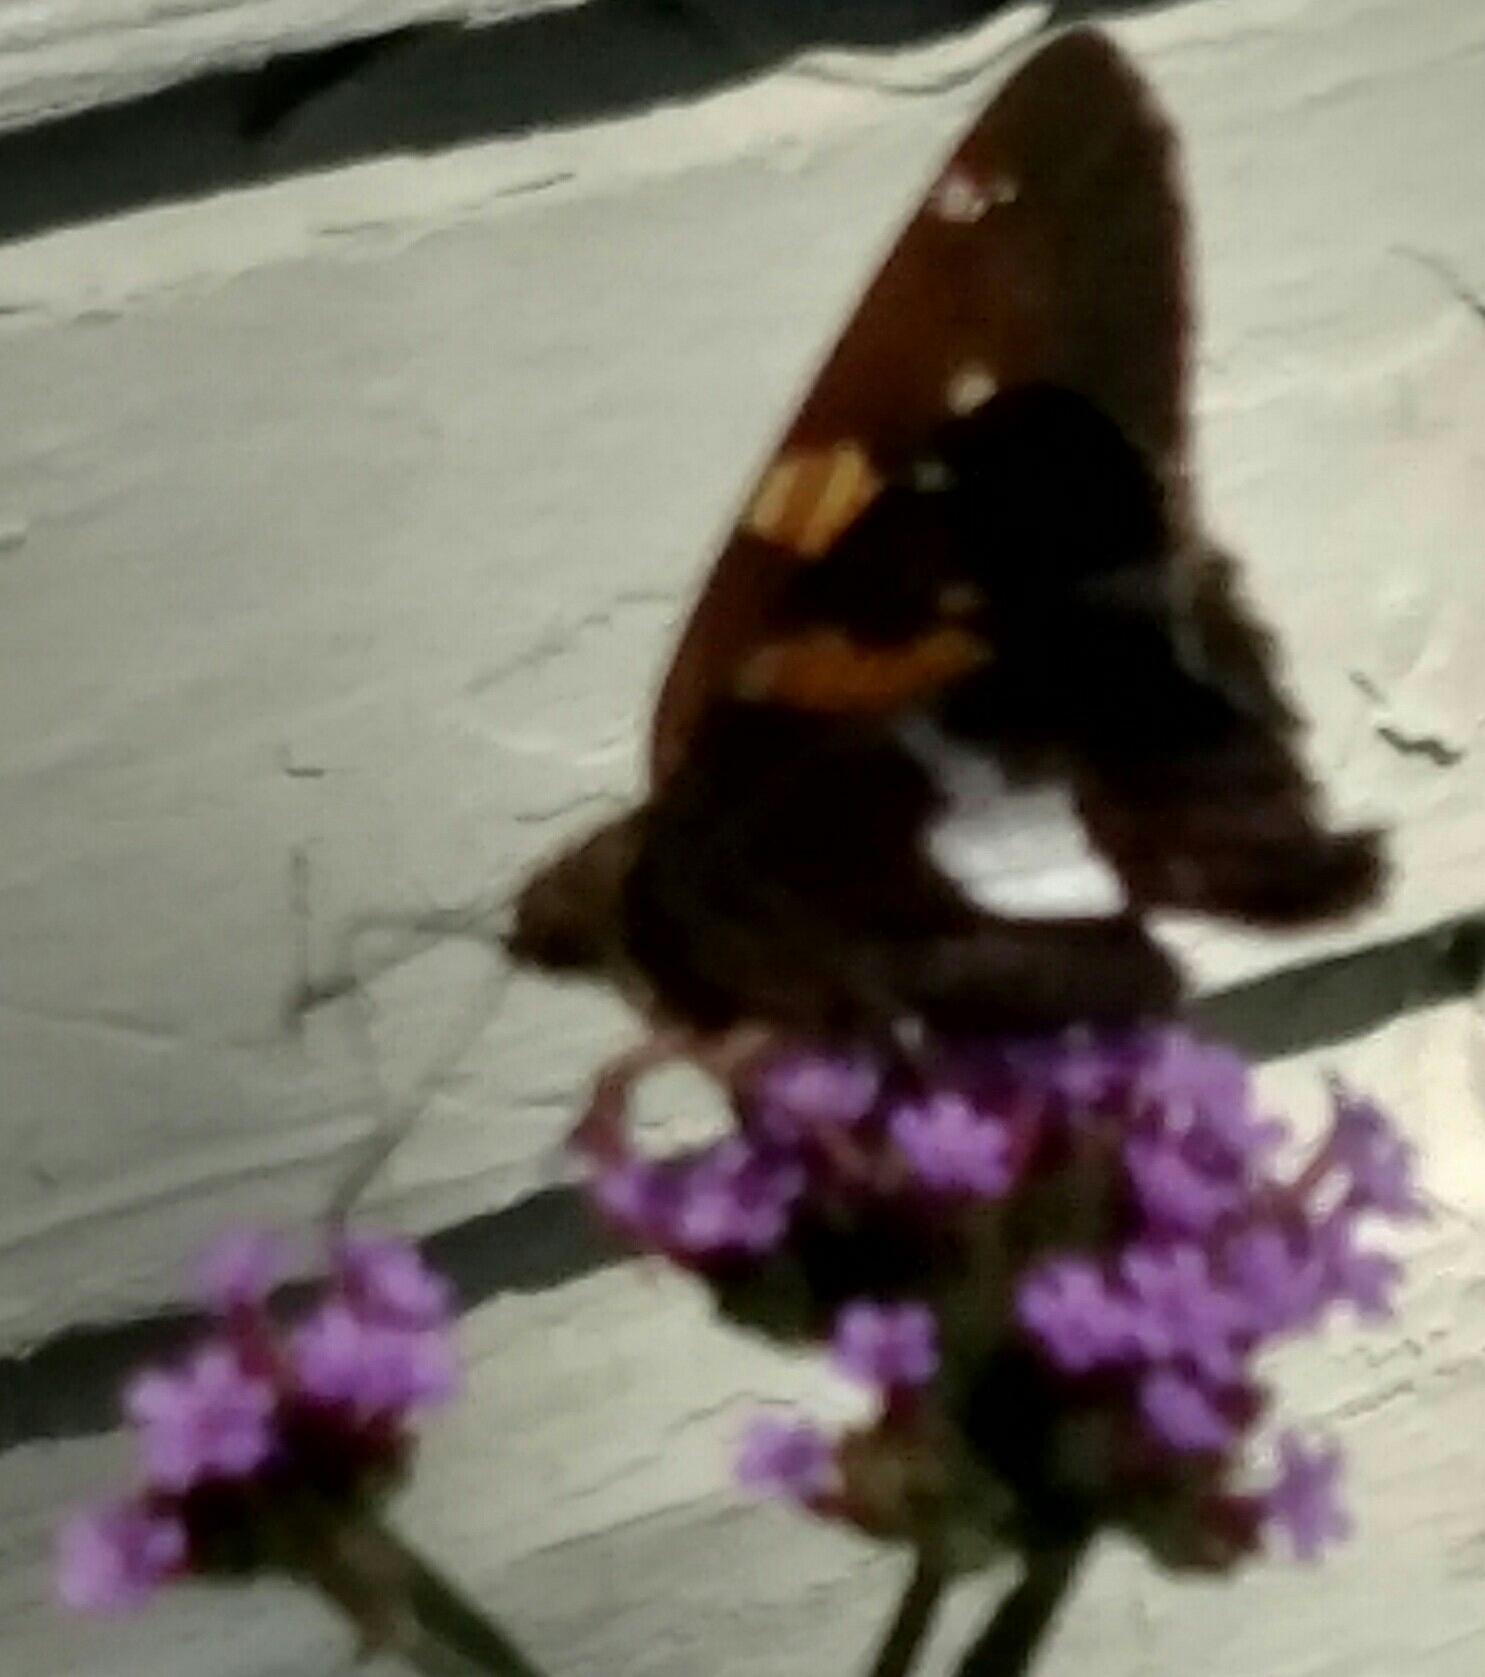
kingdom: Animalia
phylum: Arthropoda
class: Insecta
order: Lepidoptera
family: Hesperiidae
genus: Epargyreus
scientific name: Epargyreus clarus
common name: Silver-spotted skipper
